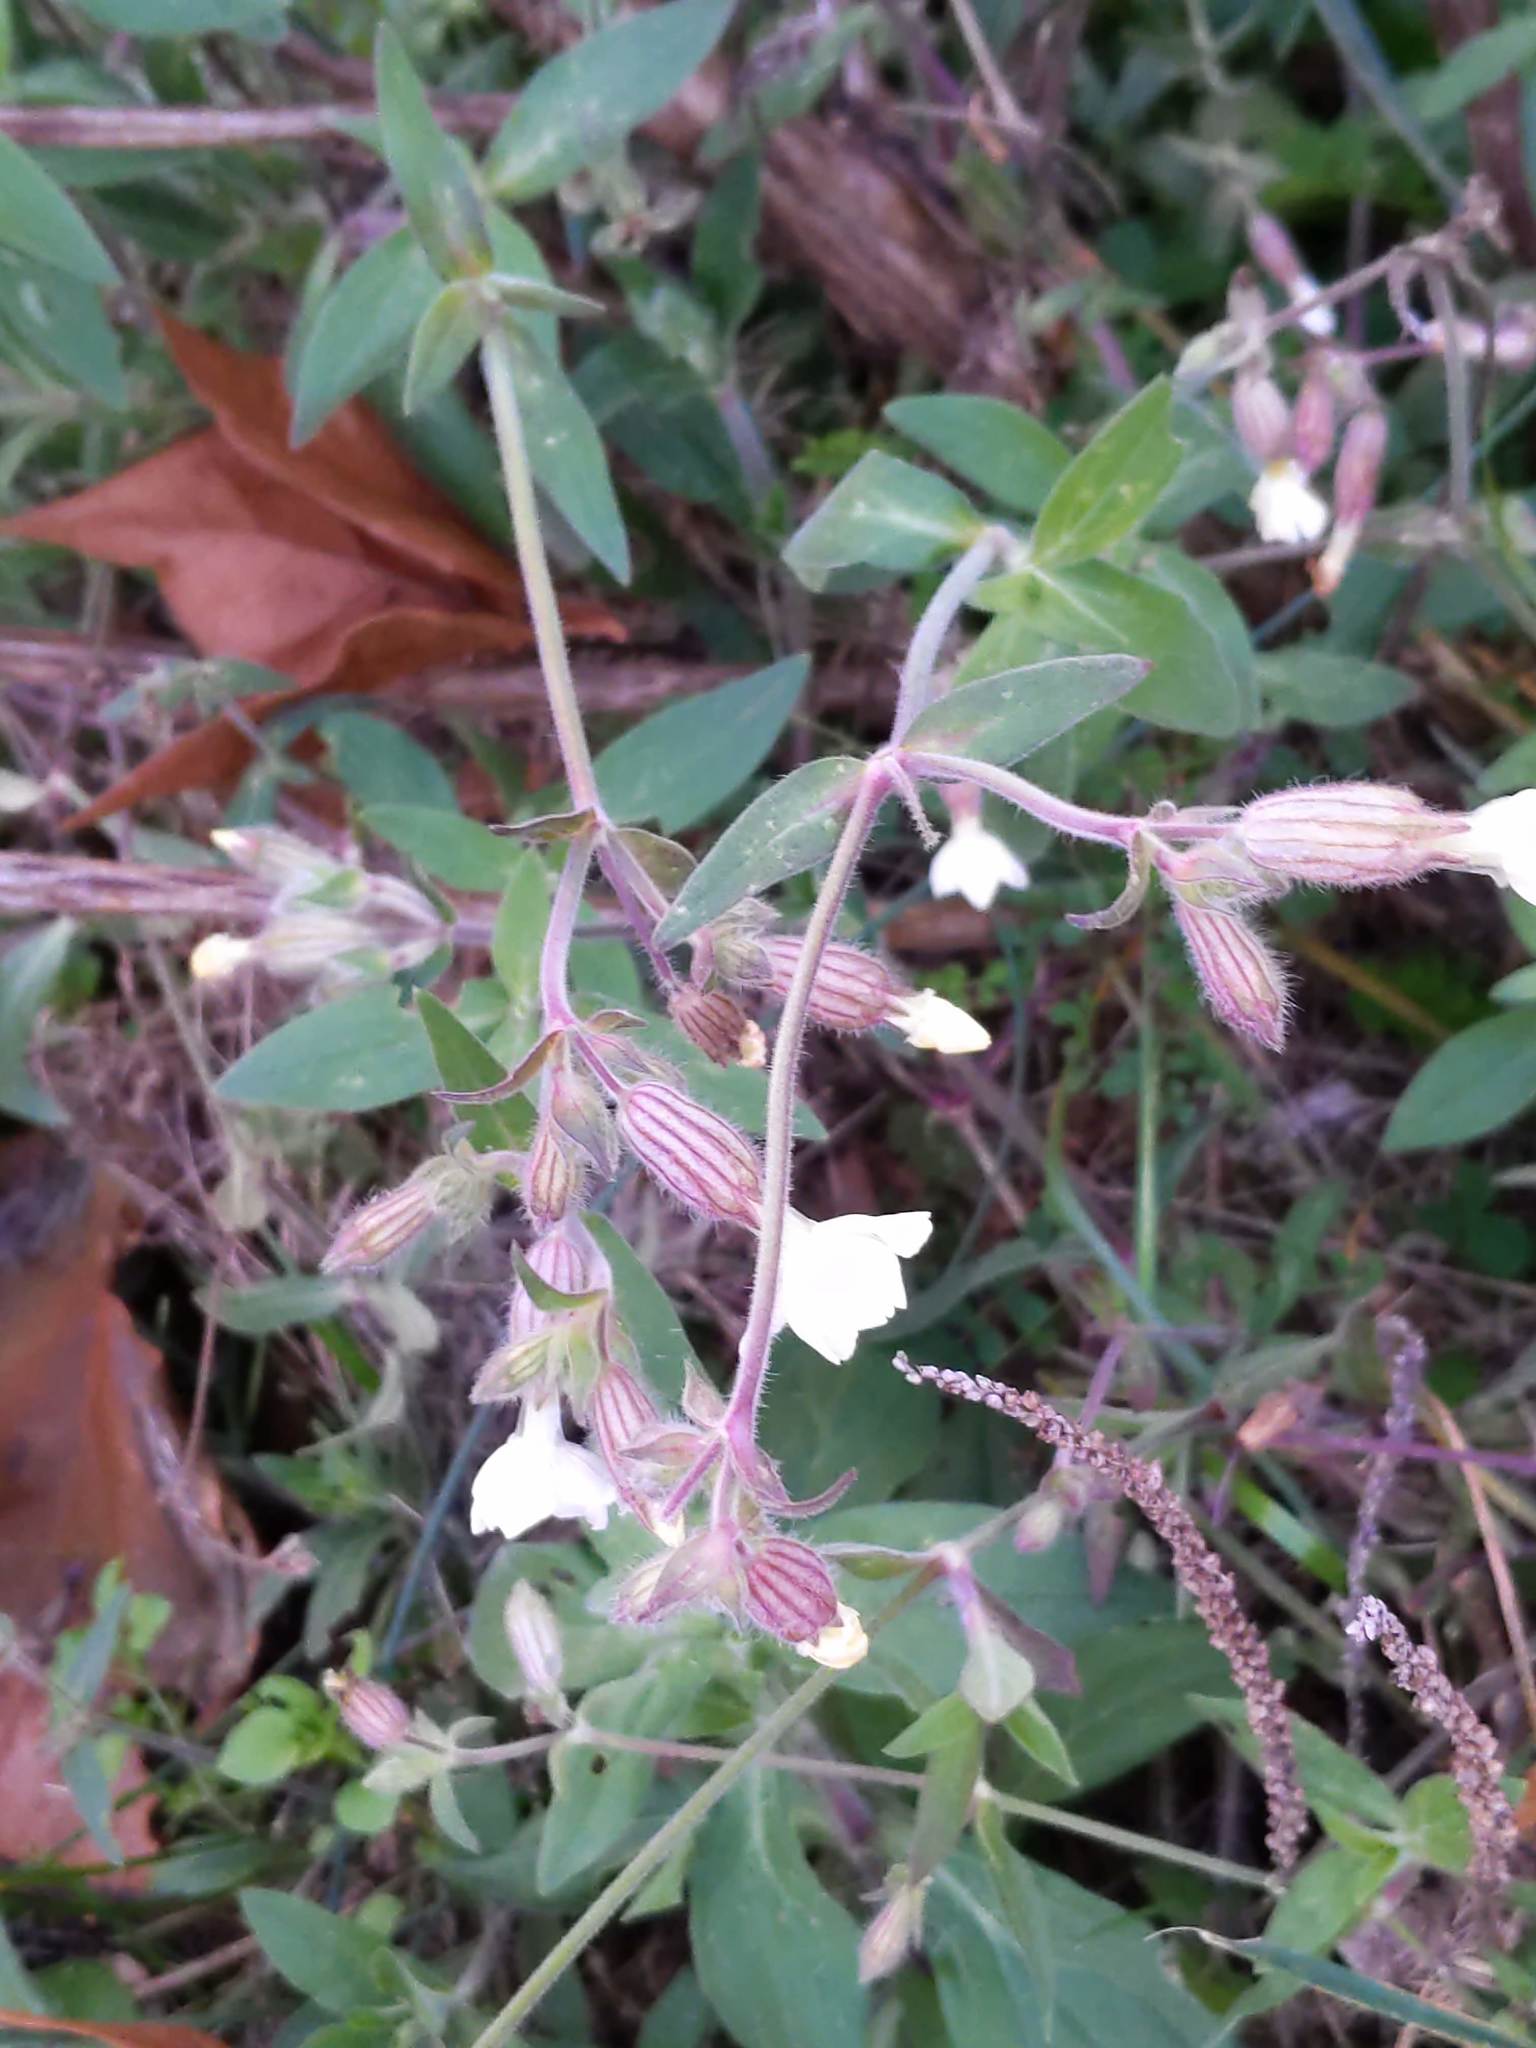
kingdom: Plantae
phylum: Tracheophyta
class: Magnoliopsida
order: Caryophyllales
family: Caryophyllaceae
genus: Silene
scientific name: Silene latifolia
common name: White campion
